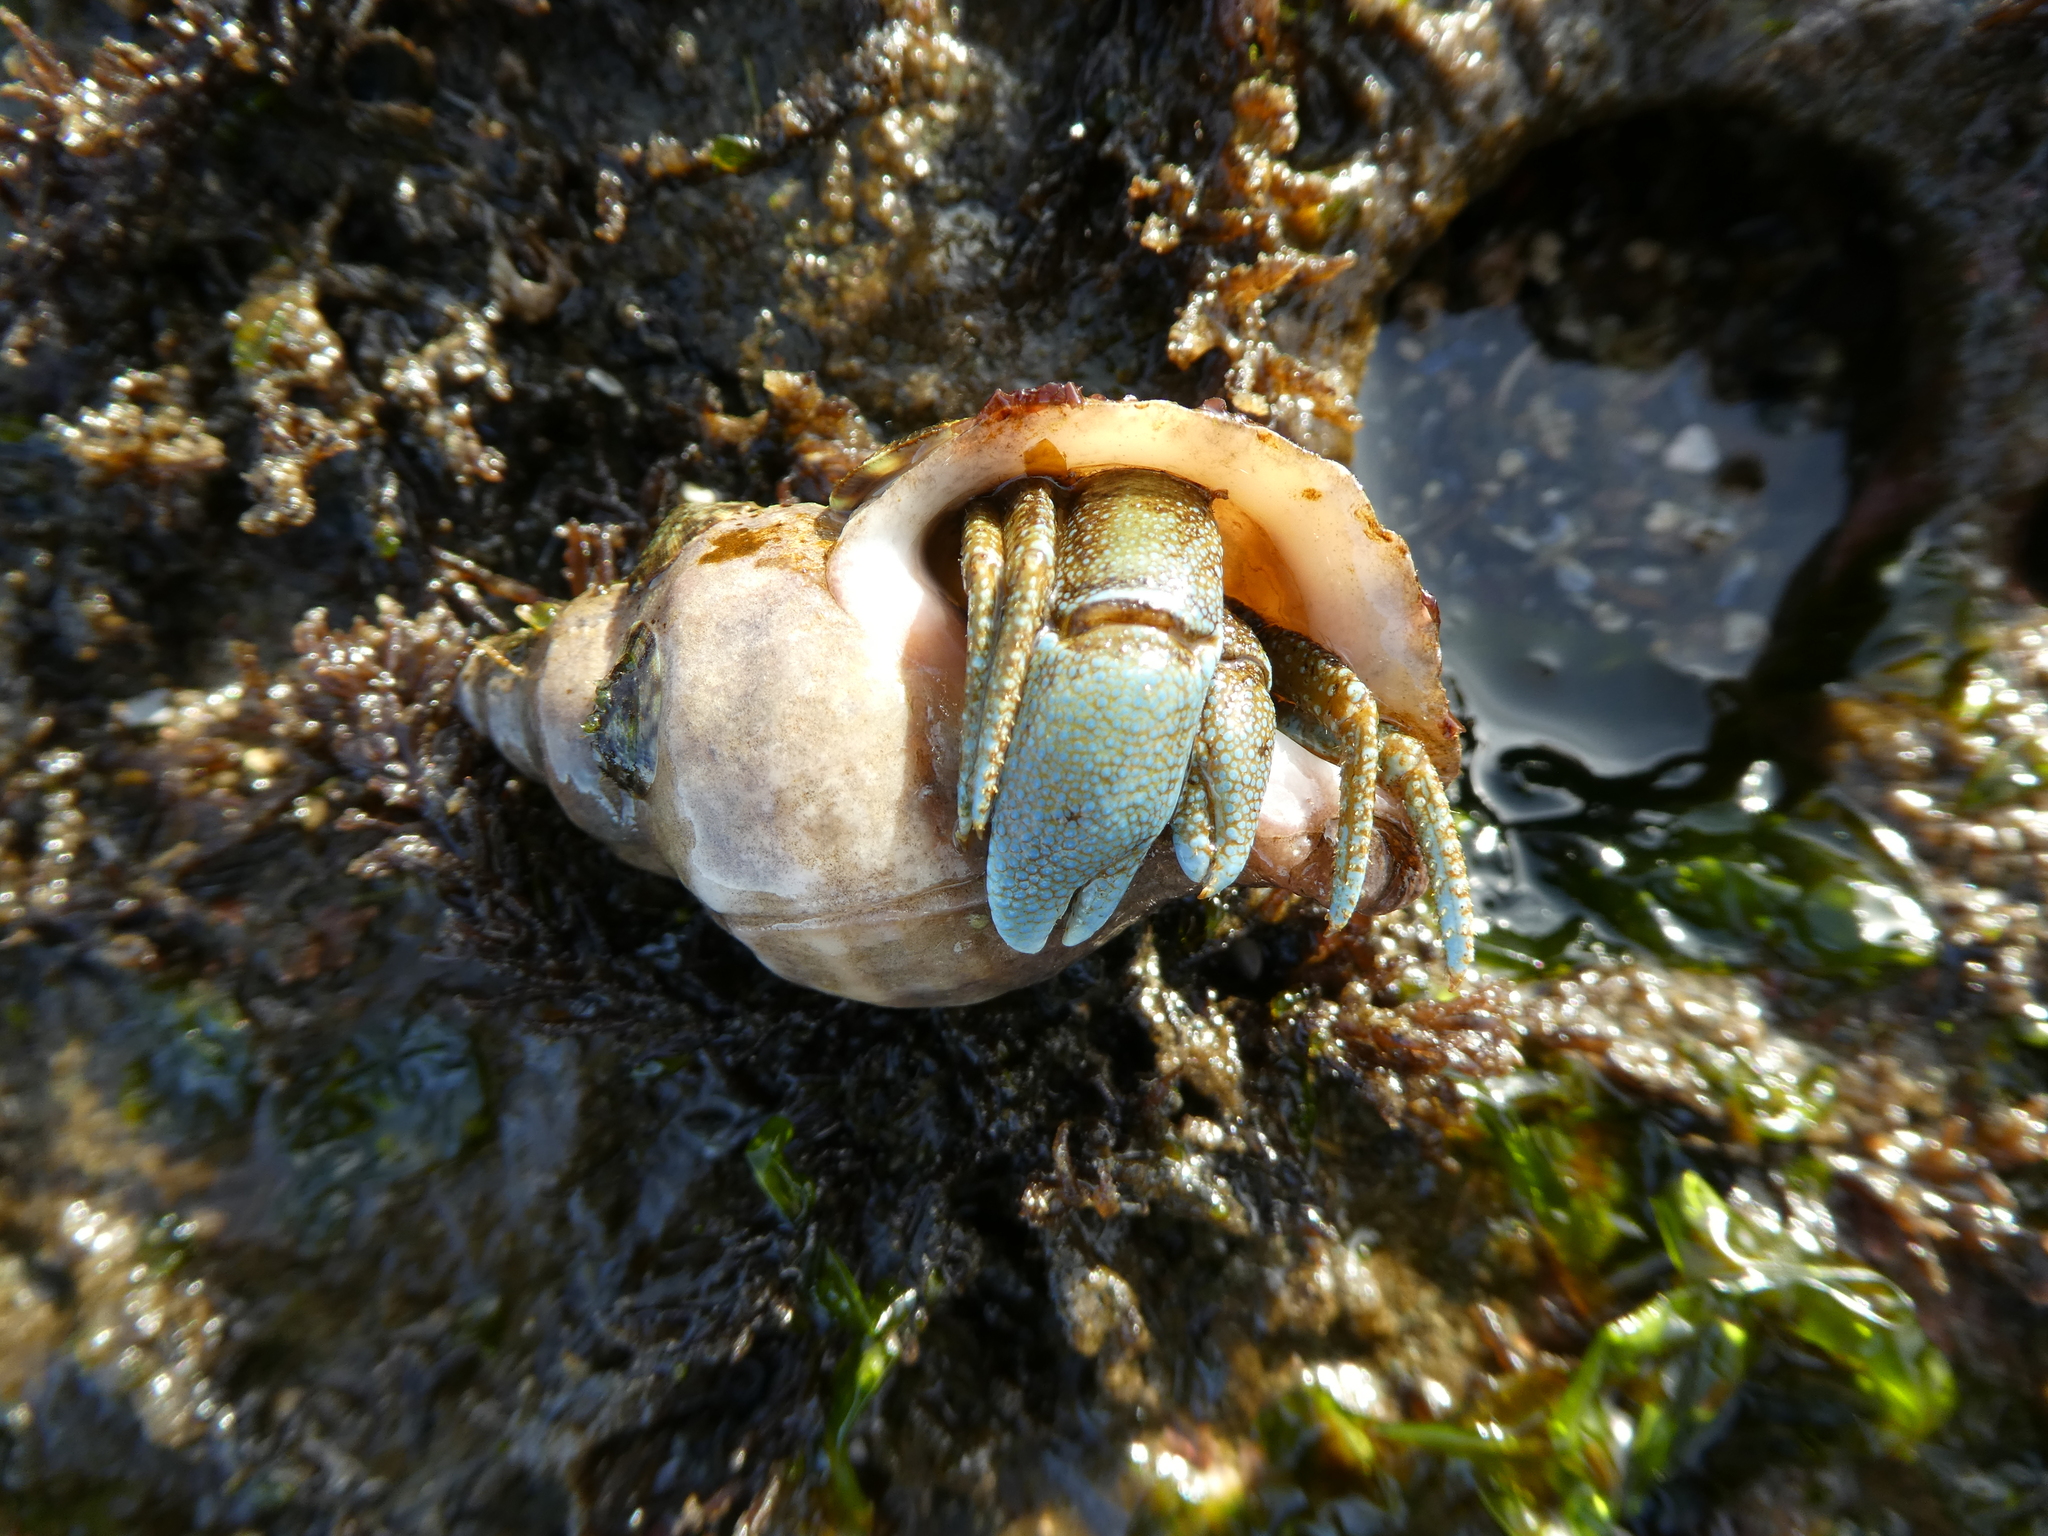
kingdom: Animalia
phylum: Arthropoda
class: Malacostraca
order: Decapoda
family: Paguridae
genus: Pagurus
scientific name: Pagurus granosimanus
